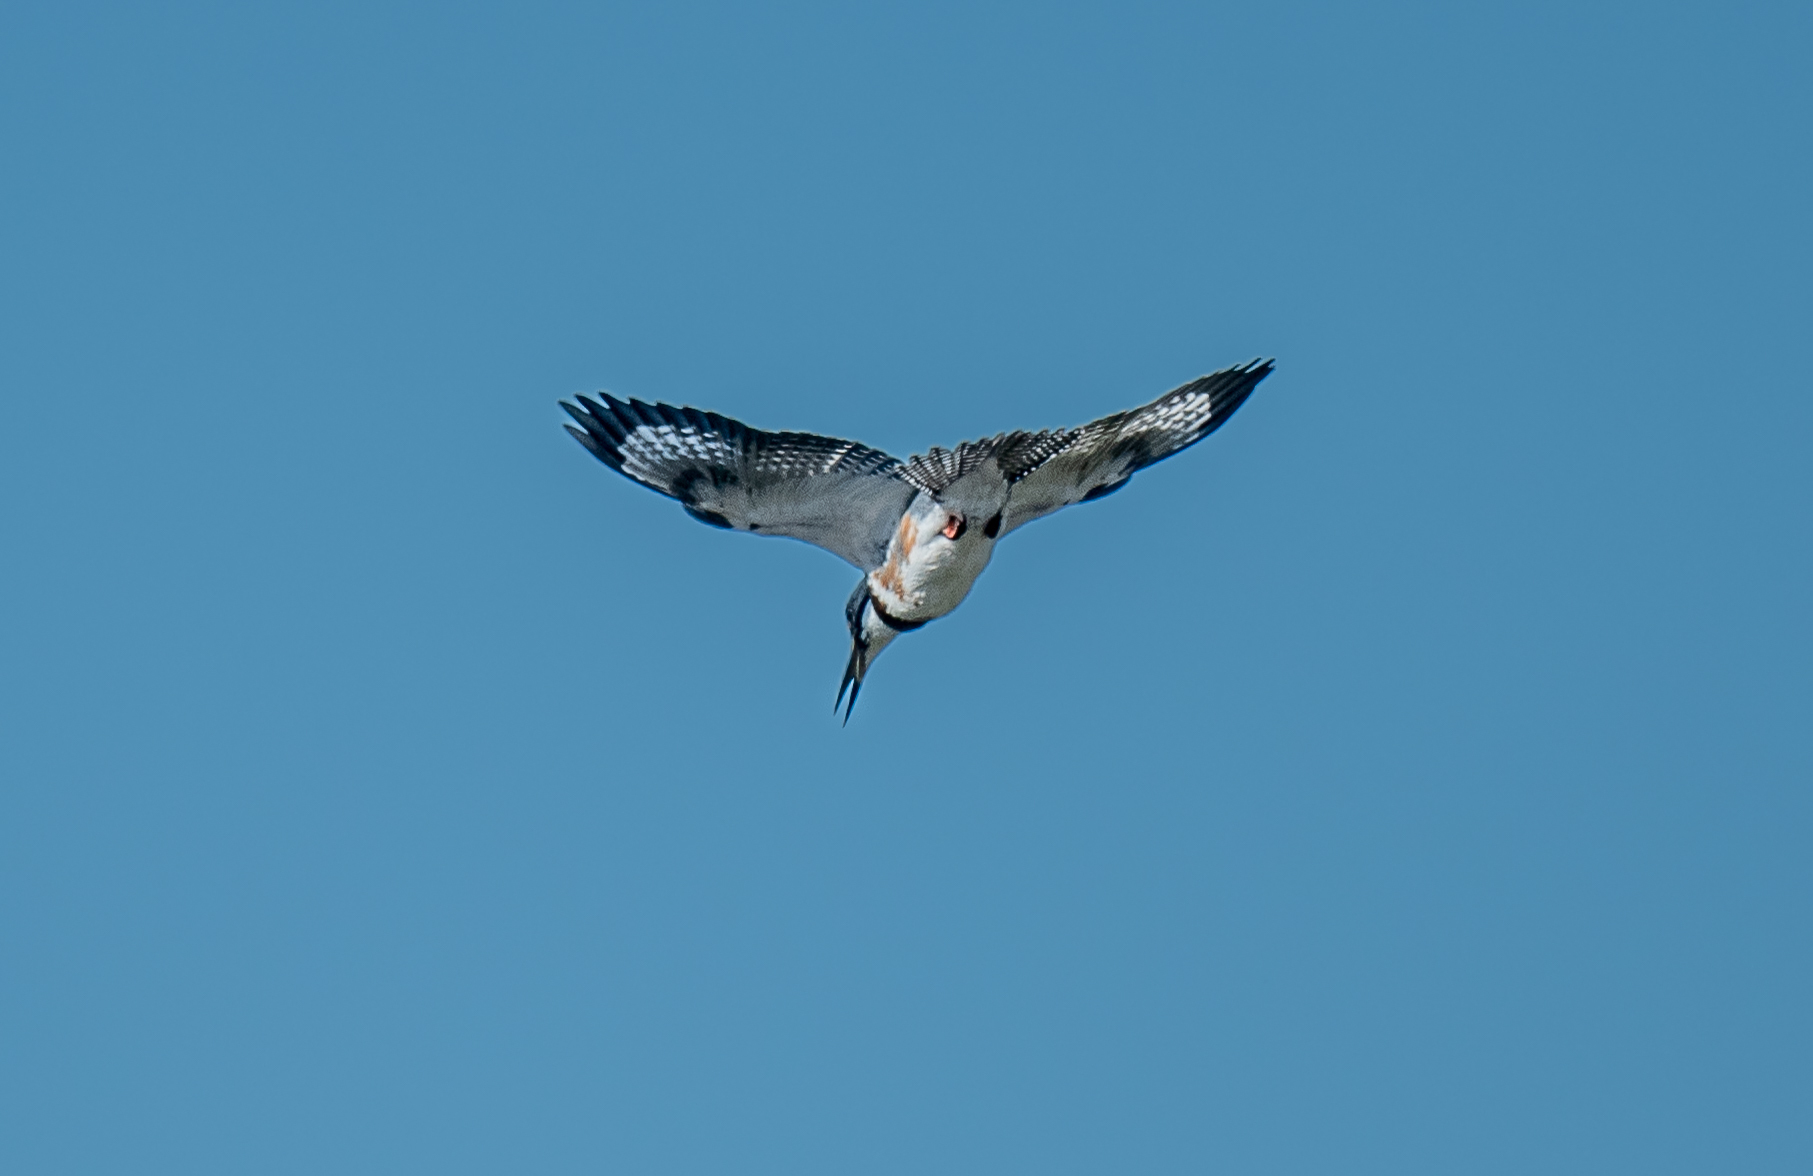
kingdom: Animalia
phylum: Chordata
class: Aves
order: Coraciiformes
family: Alcedinidae
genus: Megaceryle
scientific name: Megaceryle alcyon
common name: Belted kingfisher
